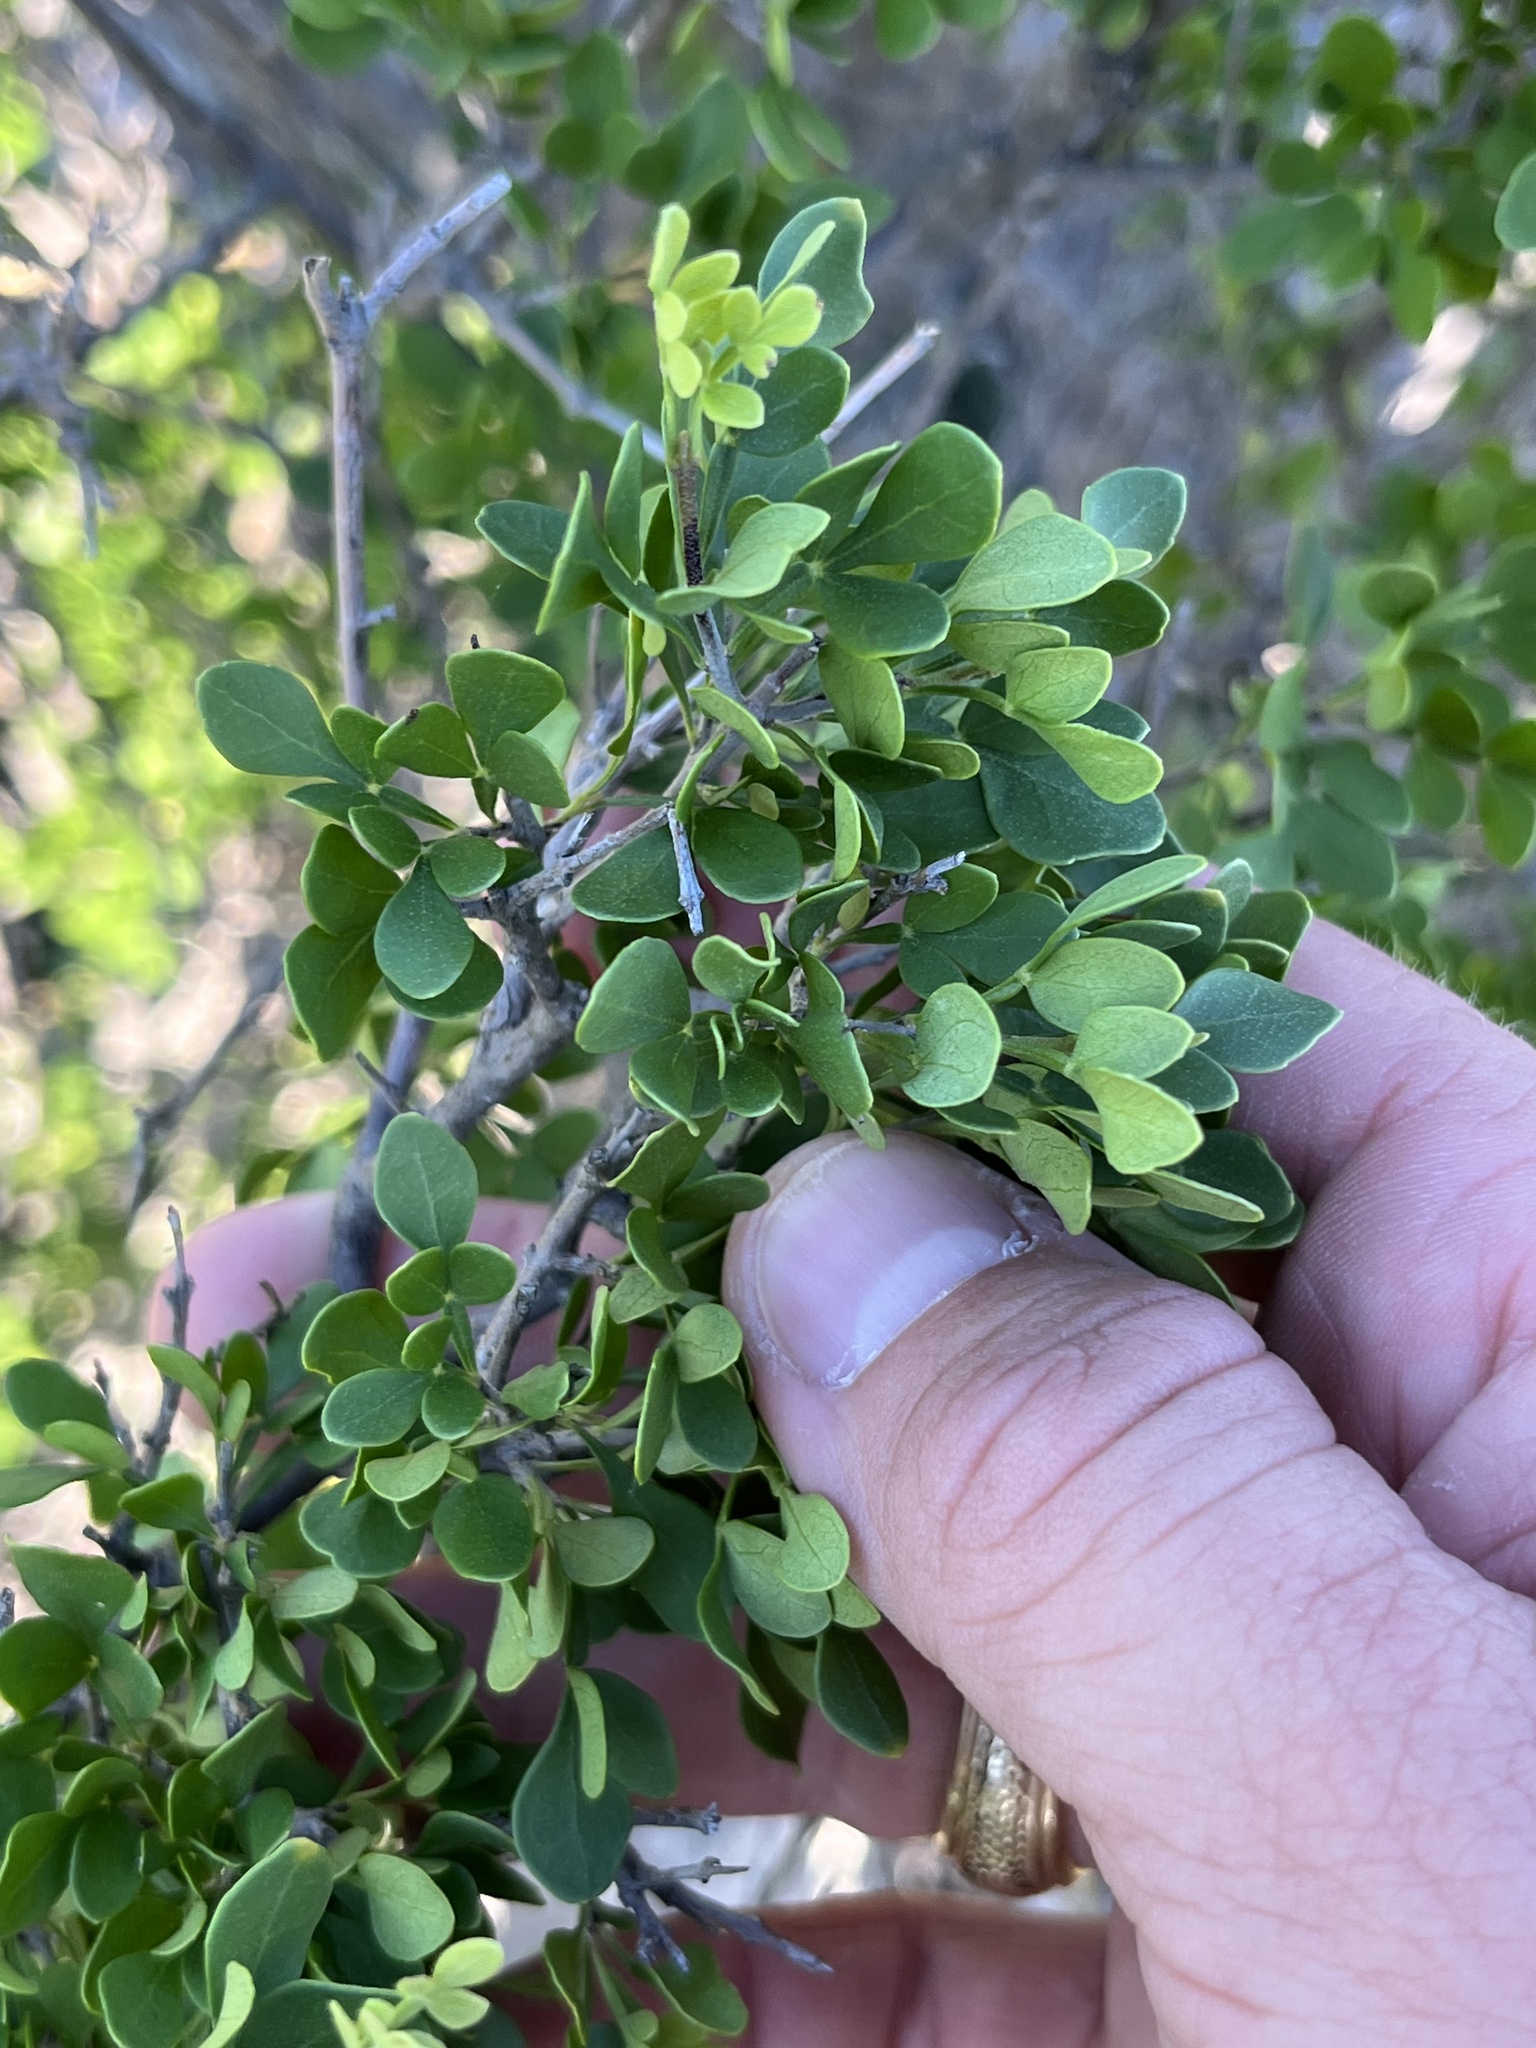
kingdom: Plantae
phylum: Tracheophyta
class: Magnoliopsida
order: Lamiales
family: Oleaceae
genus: Fraxinus
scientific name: Fraxinus greggii
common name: Gregg ash
